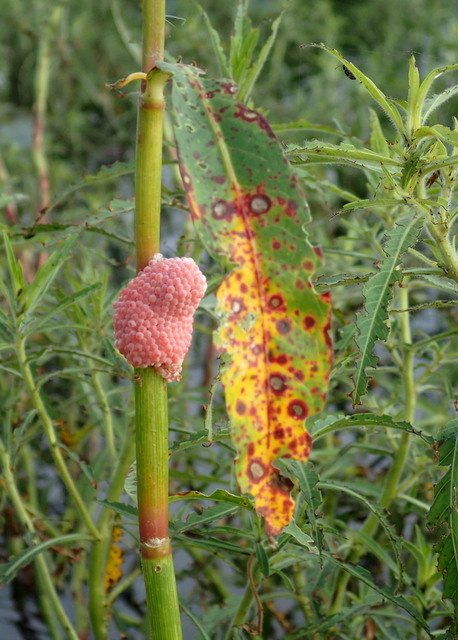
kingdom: Animalia
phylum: Mollusca
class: Gastropoda
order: Architaenioglossa
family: Ampullariidae
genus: Pomacea
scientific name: Pomacea maculata
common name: Giant applesnail
